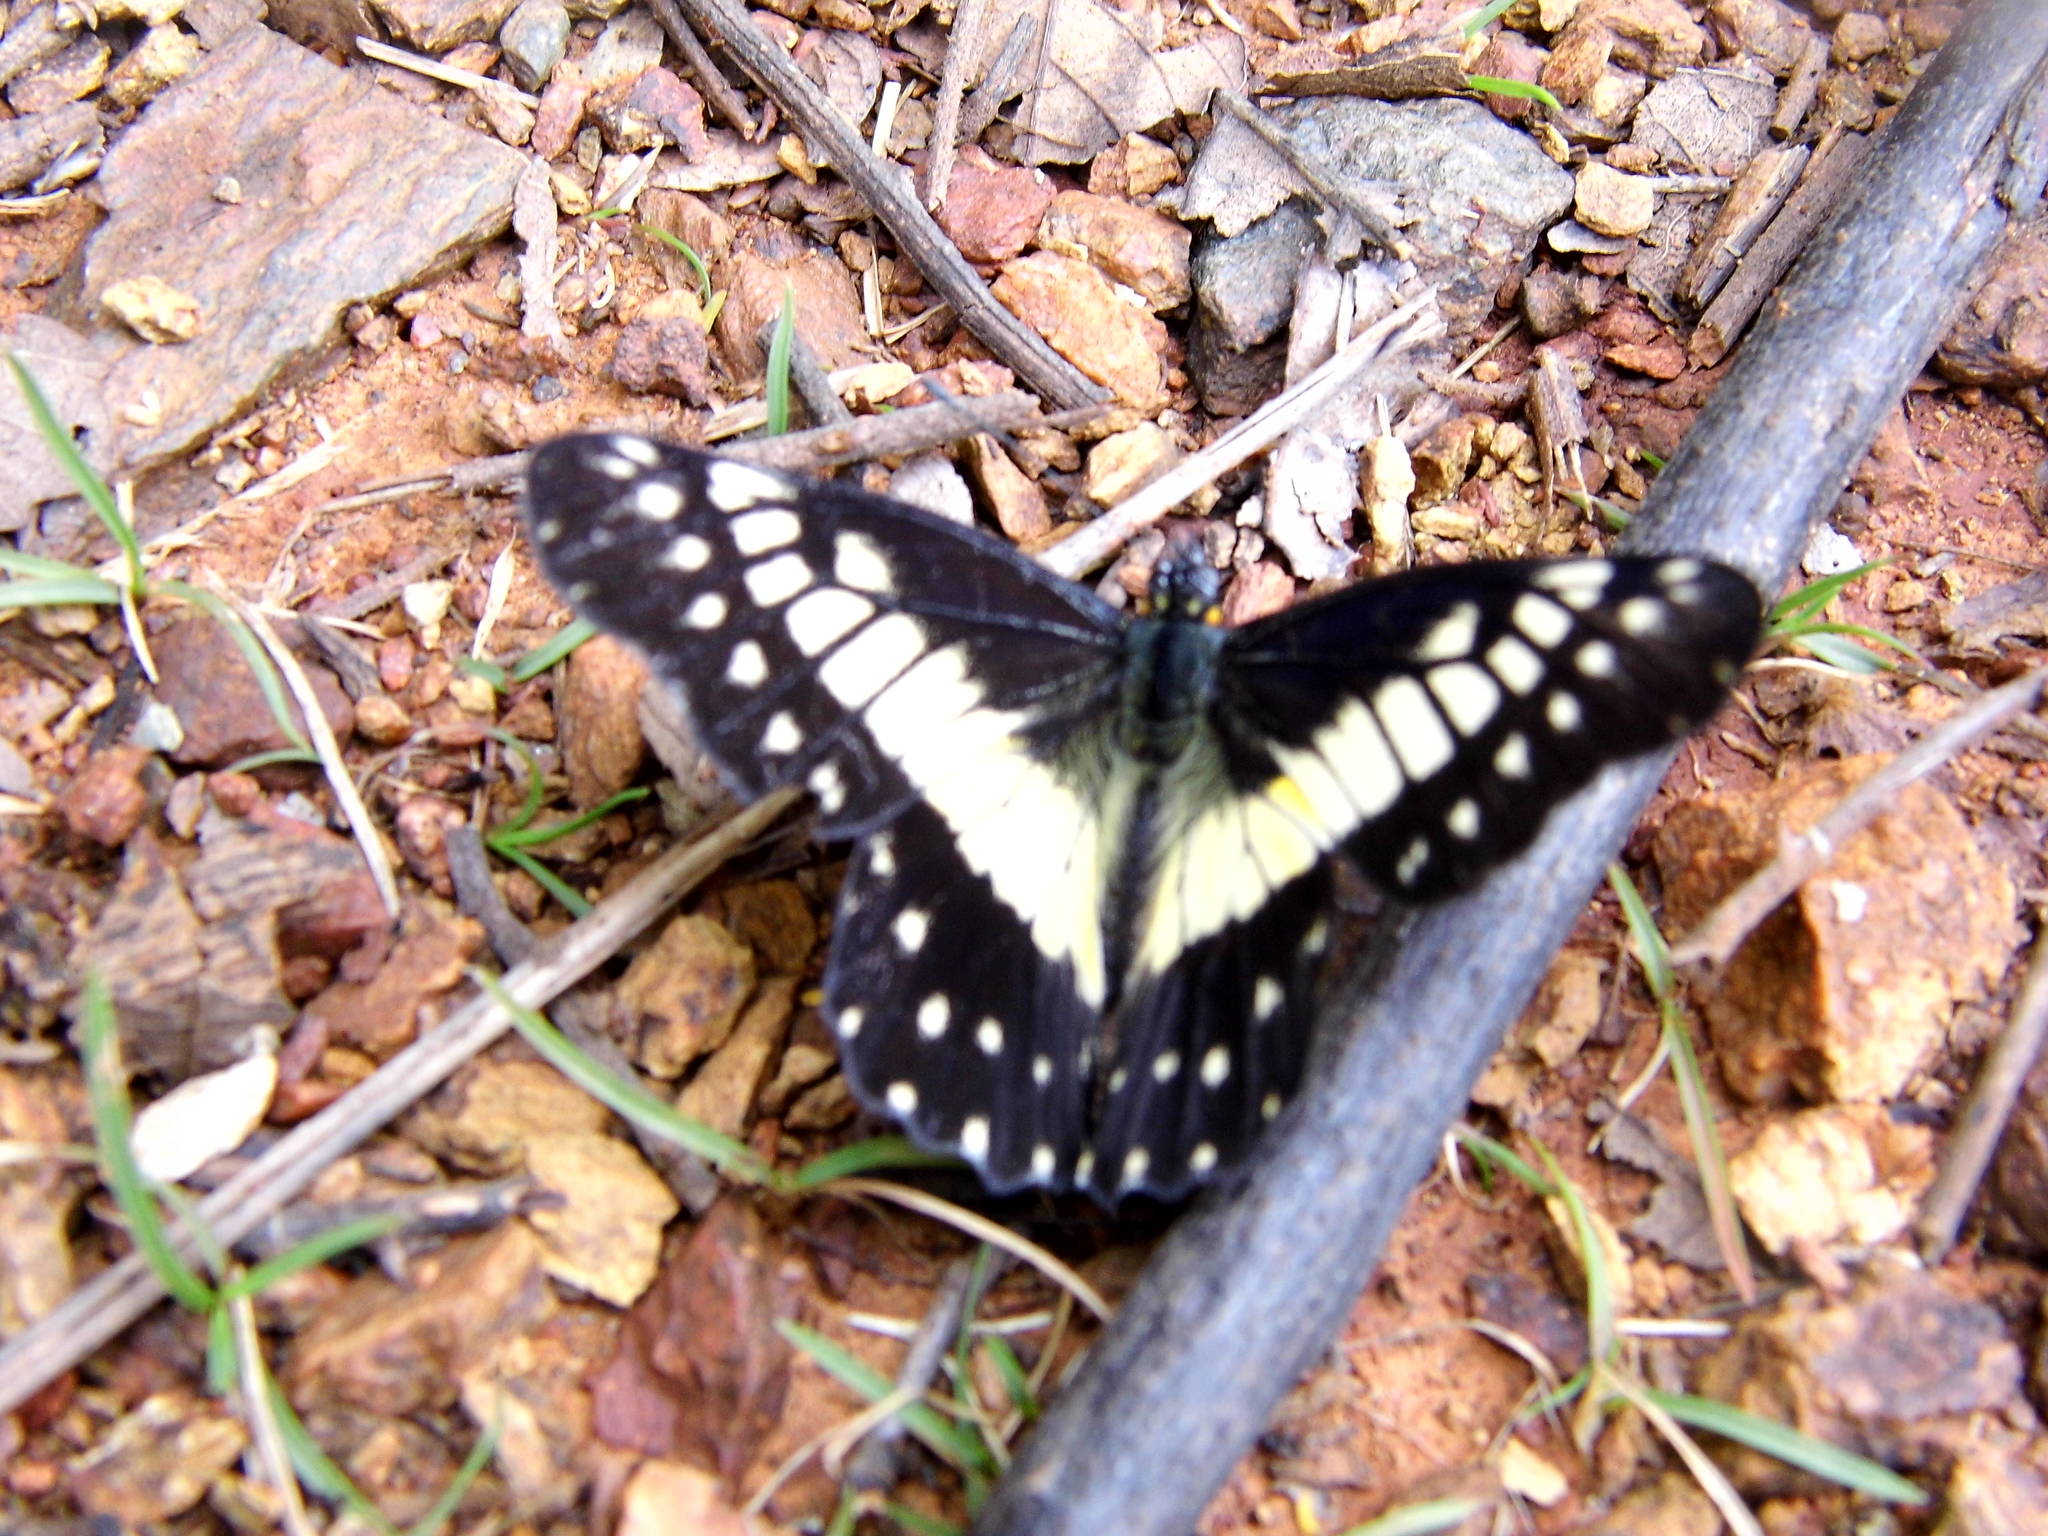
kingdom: Animalia
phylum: Arthropoda
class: Insecta
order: Lepidoptera
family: Pieridae
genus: Archonias
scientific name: Archonias nimbice
